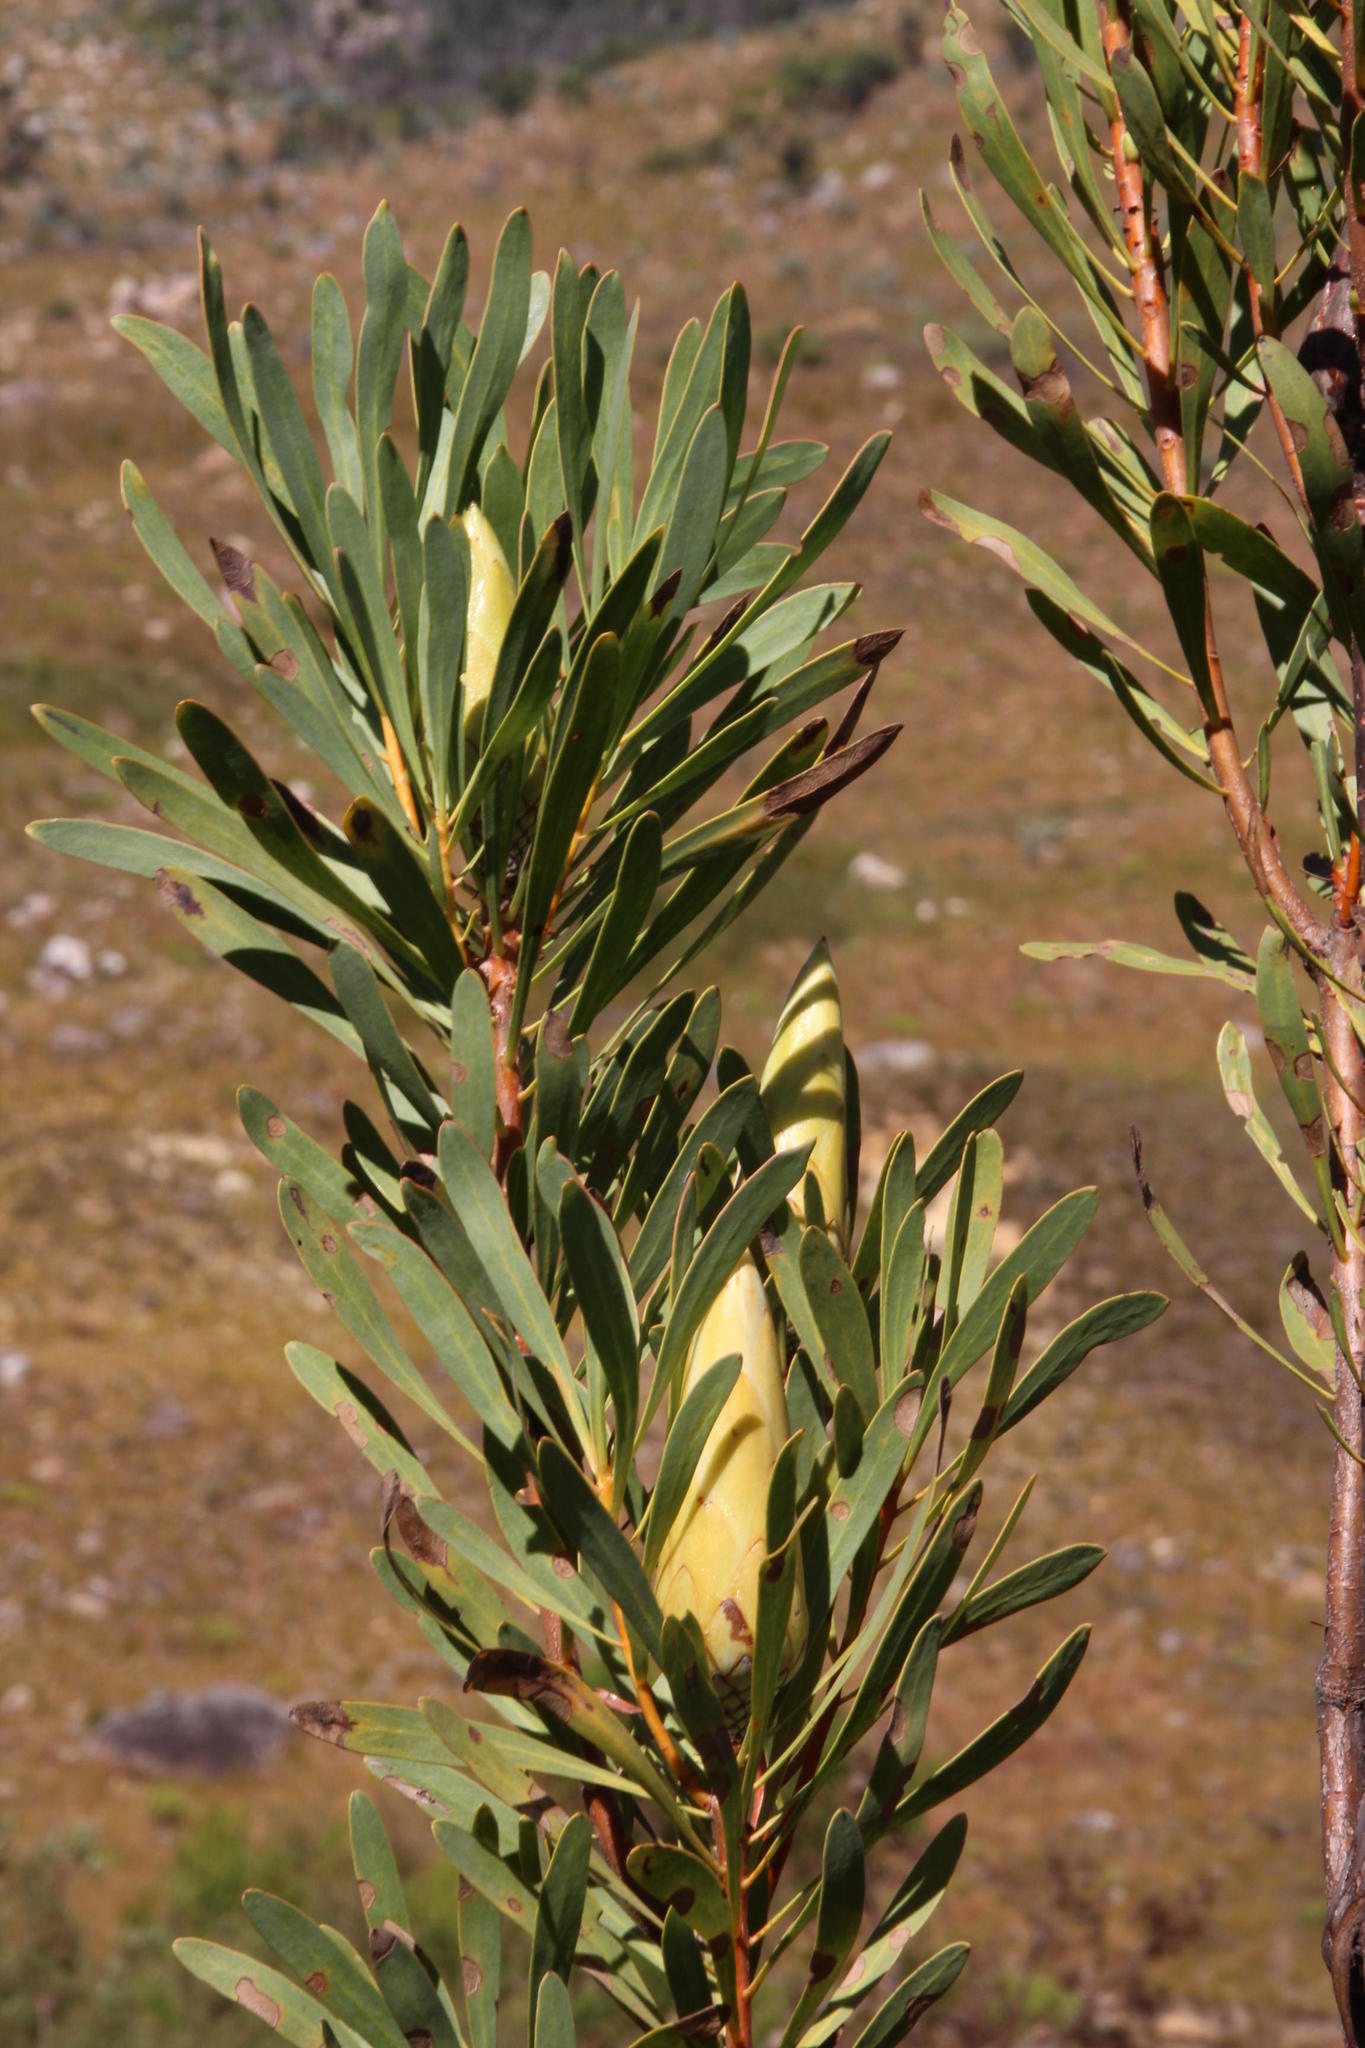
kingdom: Plantae
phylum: Tracheophyta
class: Magnoliopsida
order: Proteales
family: Proteaceae
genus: Protea
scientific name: Protea repens
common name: Sugarbush
